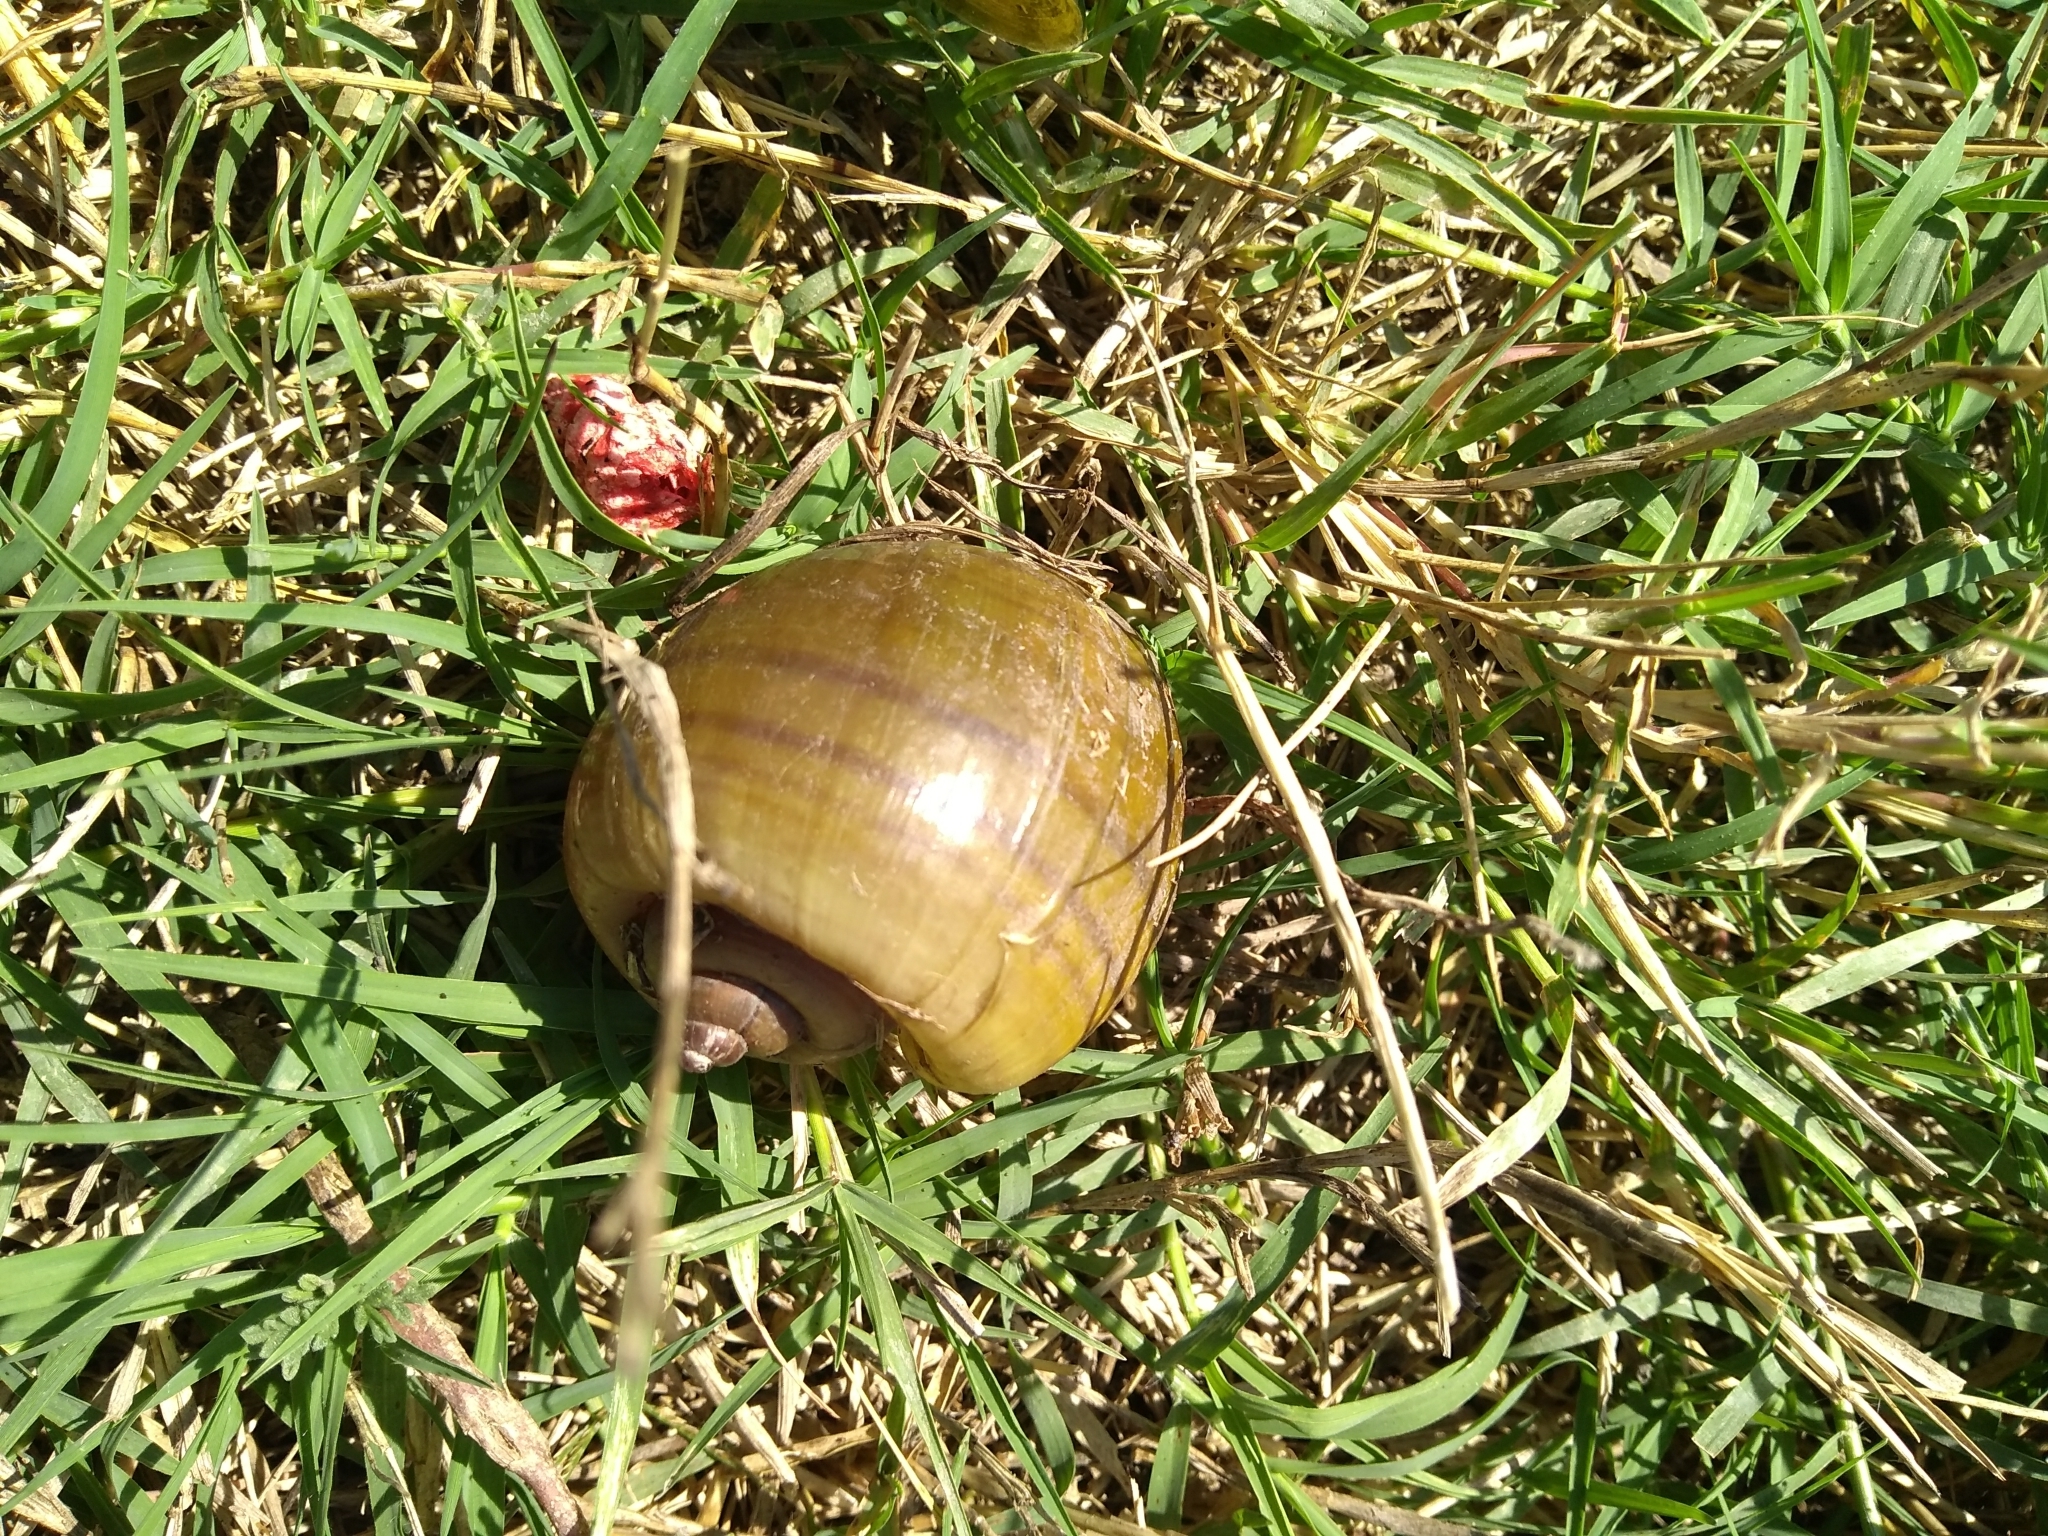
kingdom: Animalia
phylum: Mollusca
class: Gastropoda
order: Architaenioglossa
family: Ampullariidae
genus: Pomacea
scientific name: Pomacea canaliculata
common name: Channeled applesnail
